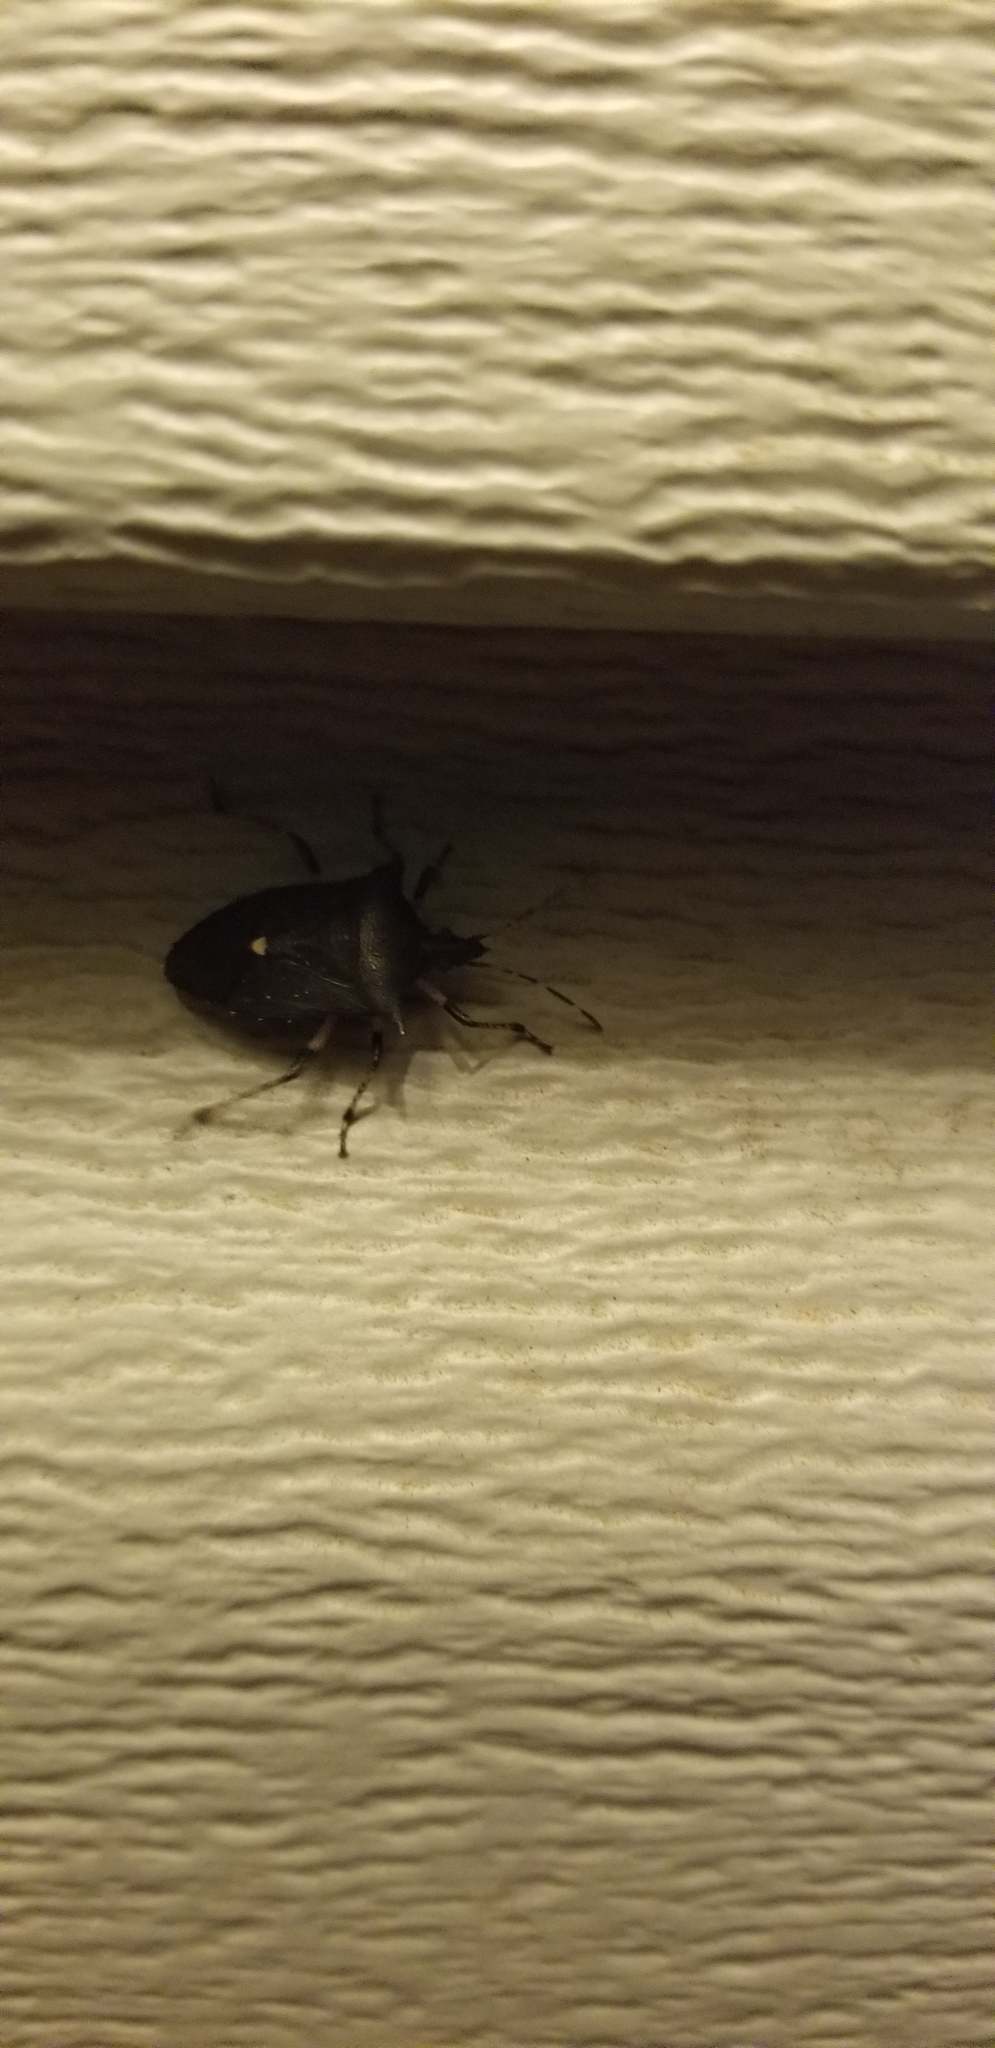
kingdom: Animalia
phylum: Arthropoda
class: Insecta
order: Hemiptera
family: Pentatomidae
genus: Proxys
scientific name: Proxys punctulatus
